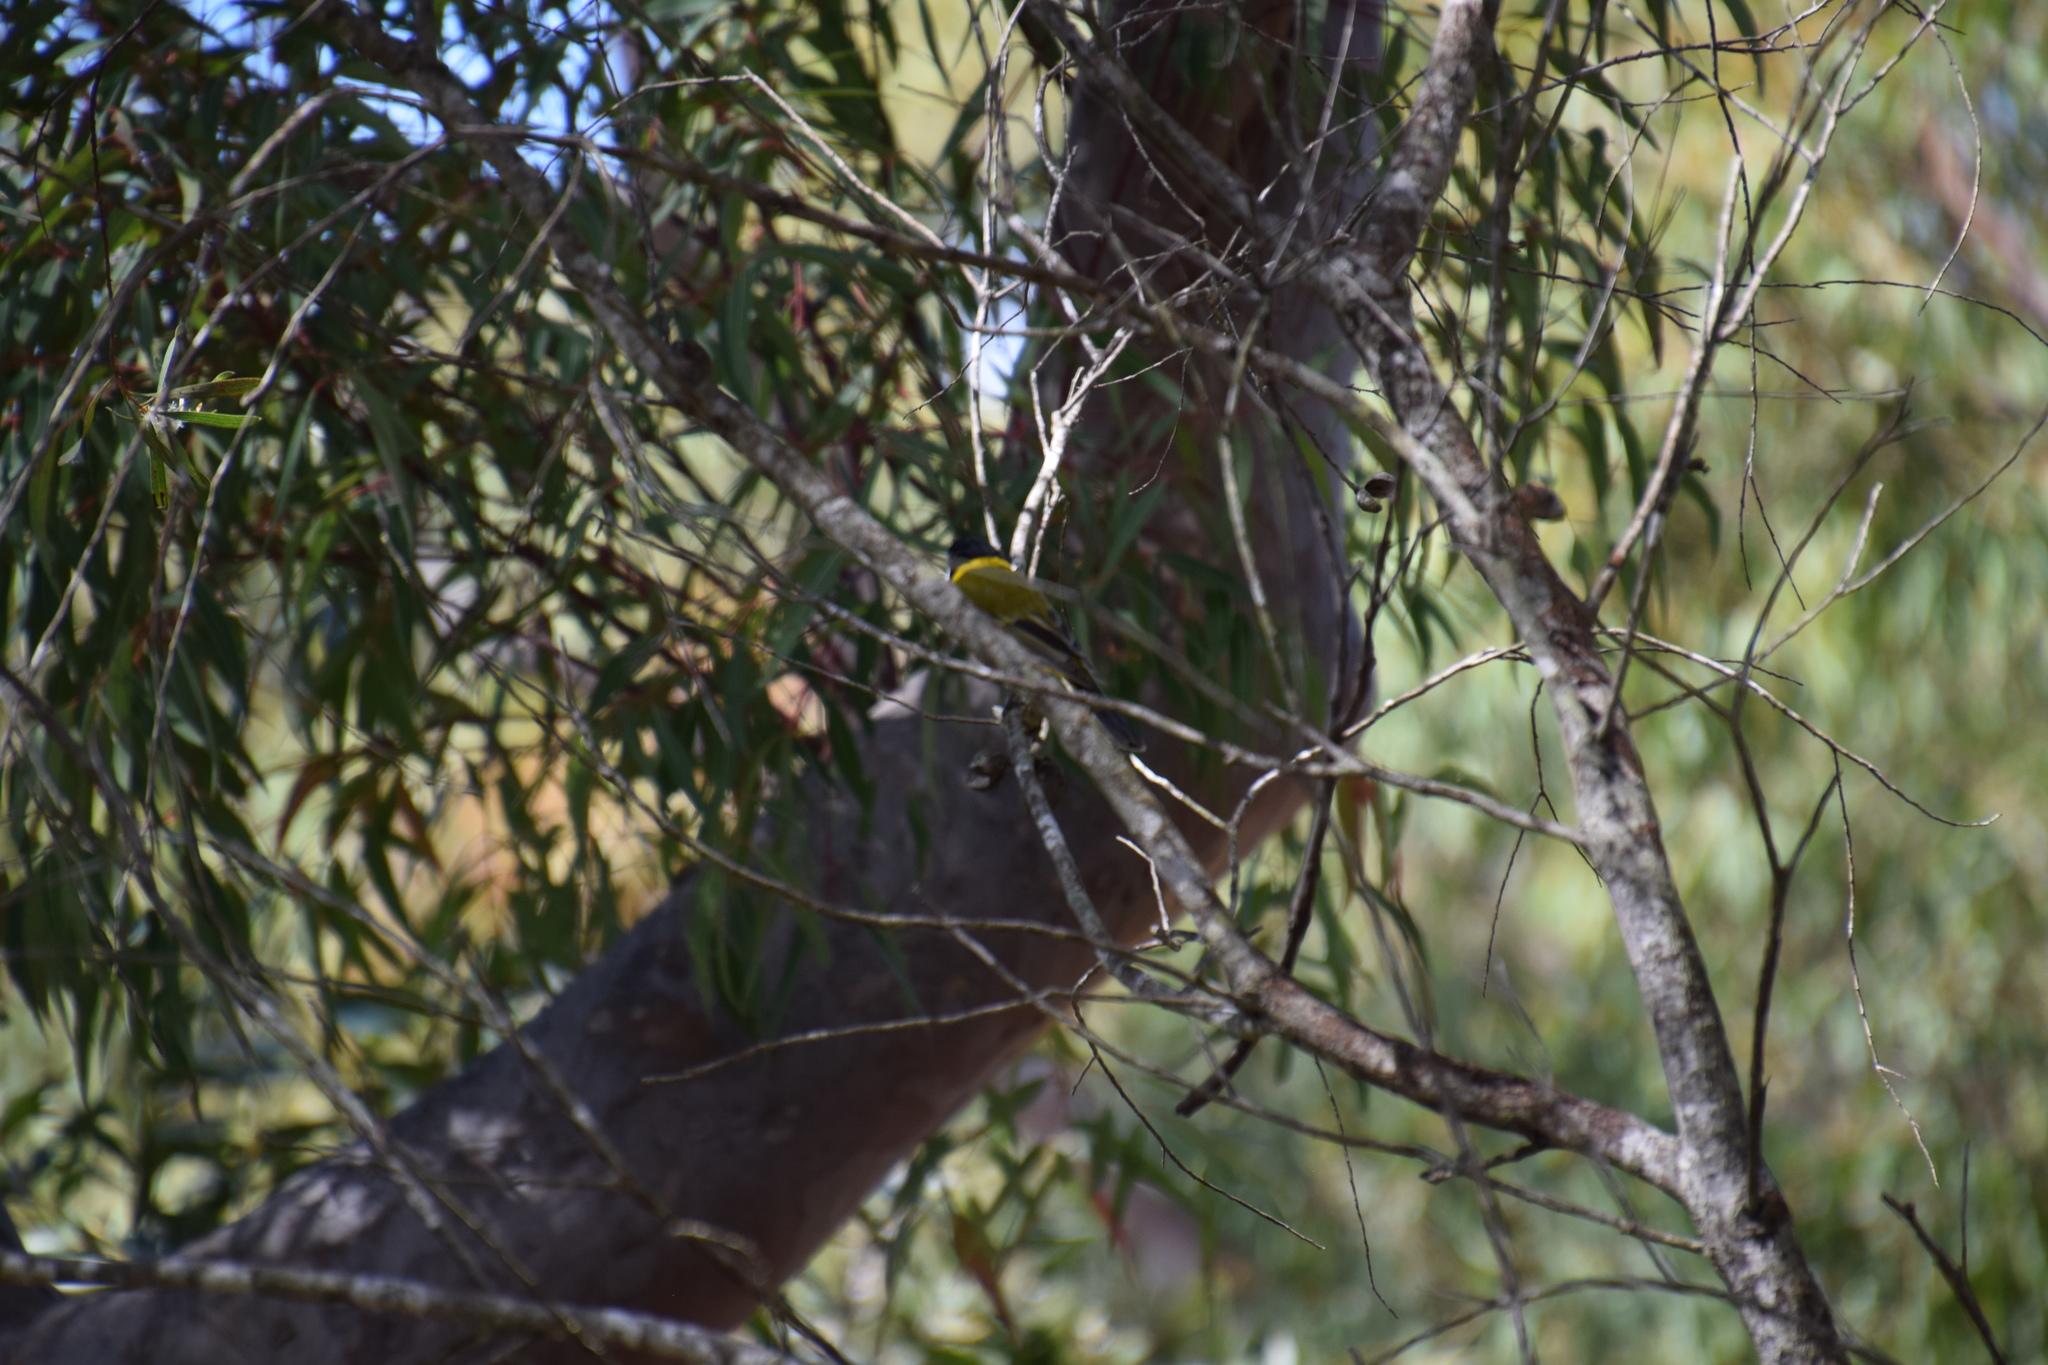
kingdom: Animalia
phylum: Chordata
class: Aves
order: Passeriformes
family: Pachycephalidae
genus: Pachycephala
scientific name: Pachycephala pectoralis
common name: Australian golden whistler
